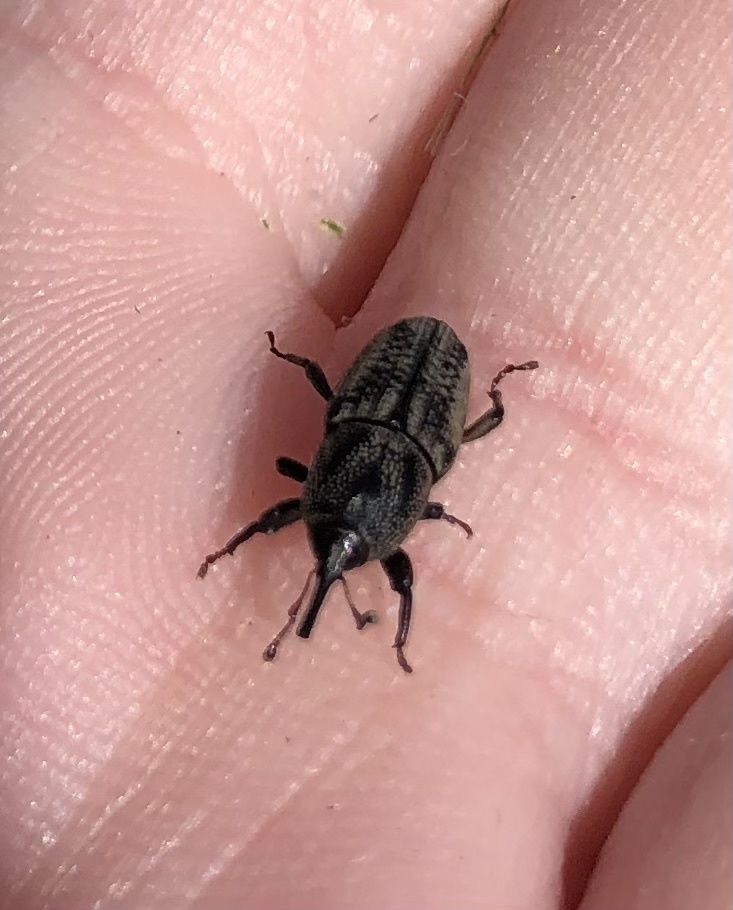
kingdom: Animalia
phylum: Arthropoda
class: Insecta
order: Coleoptera
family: Dryophthoridae
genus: Sphenophorus
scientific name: Sphenophorus venatus
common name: Hunting billbug
